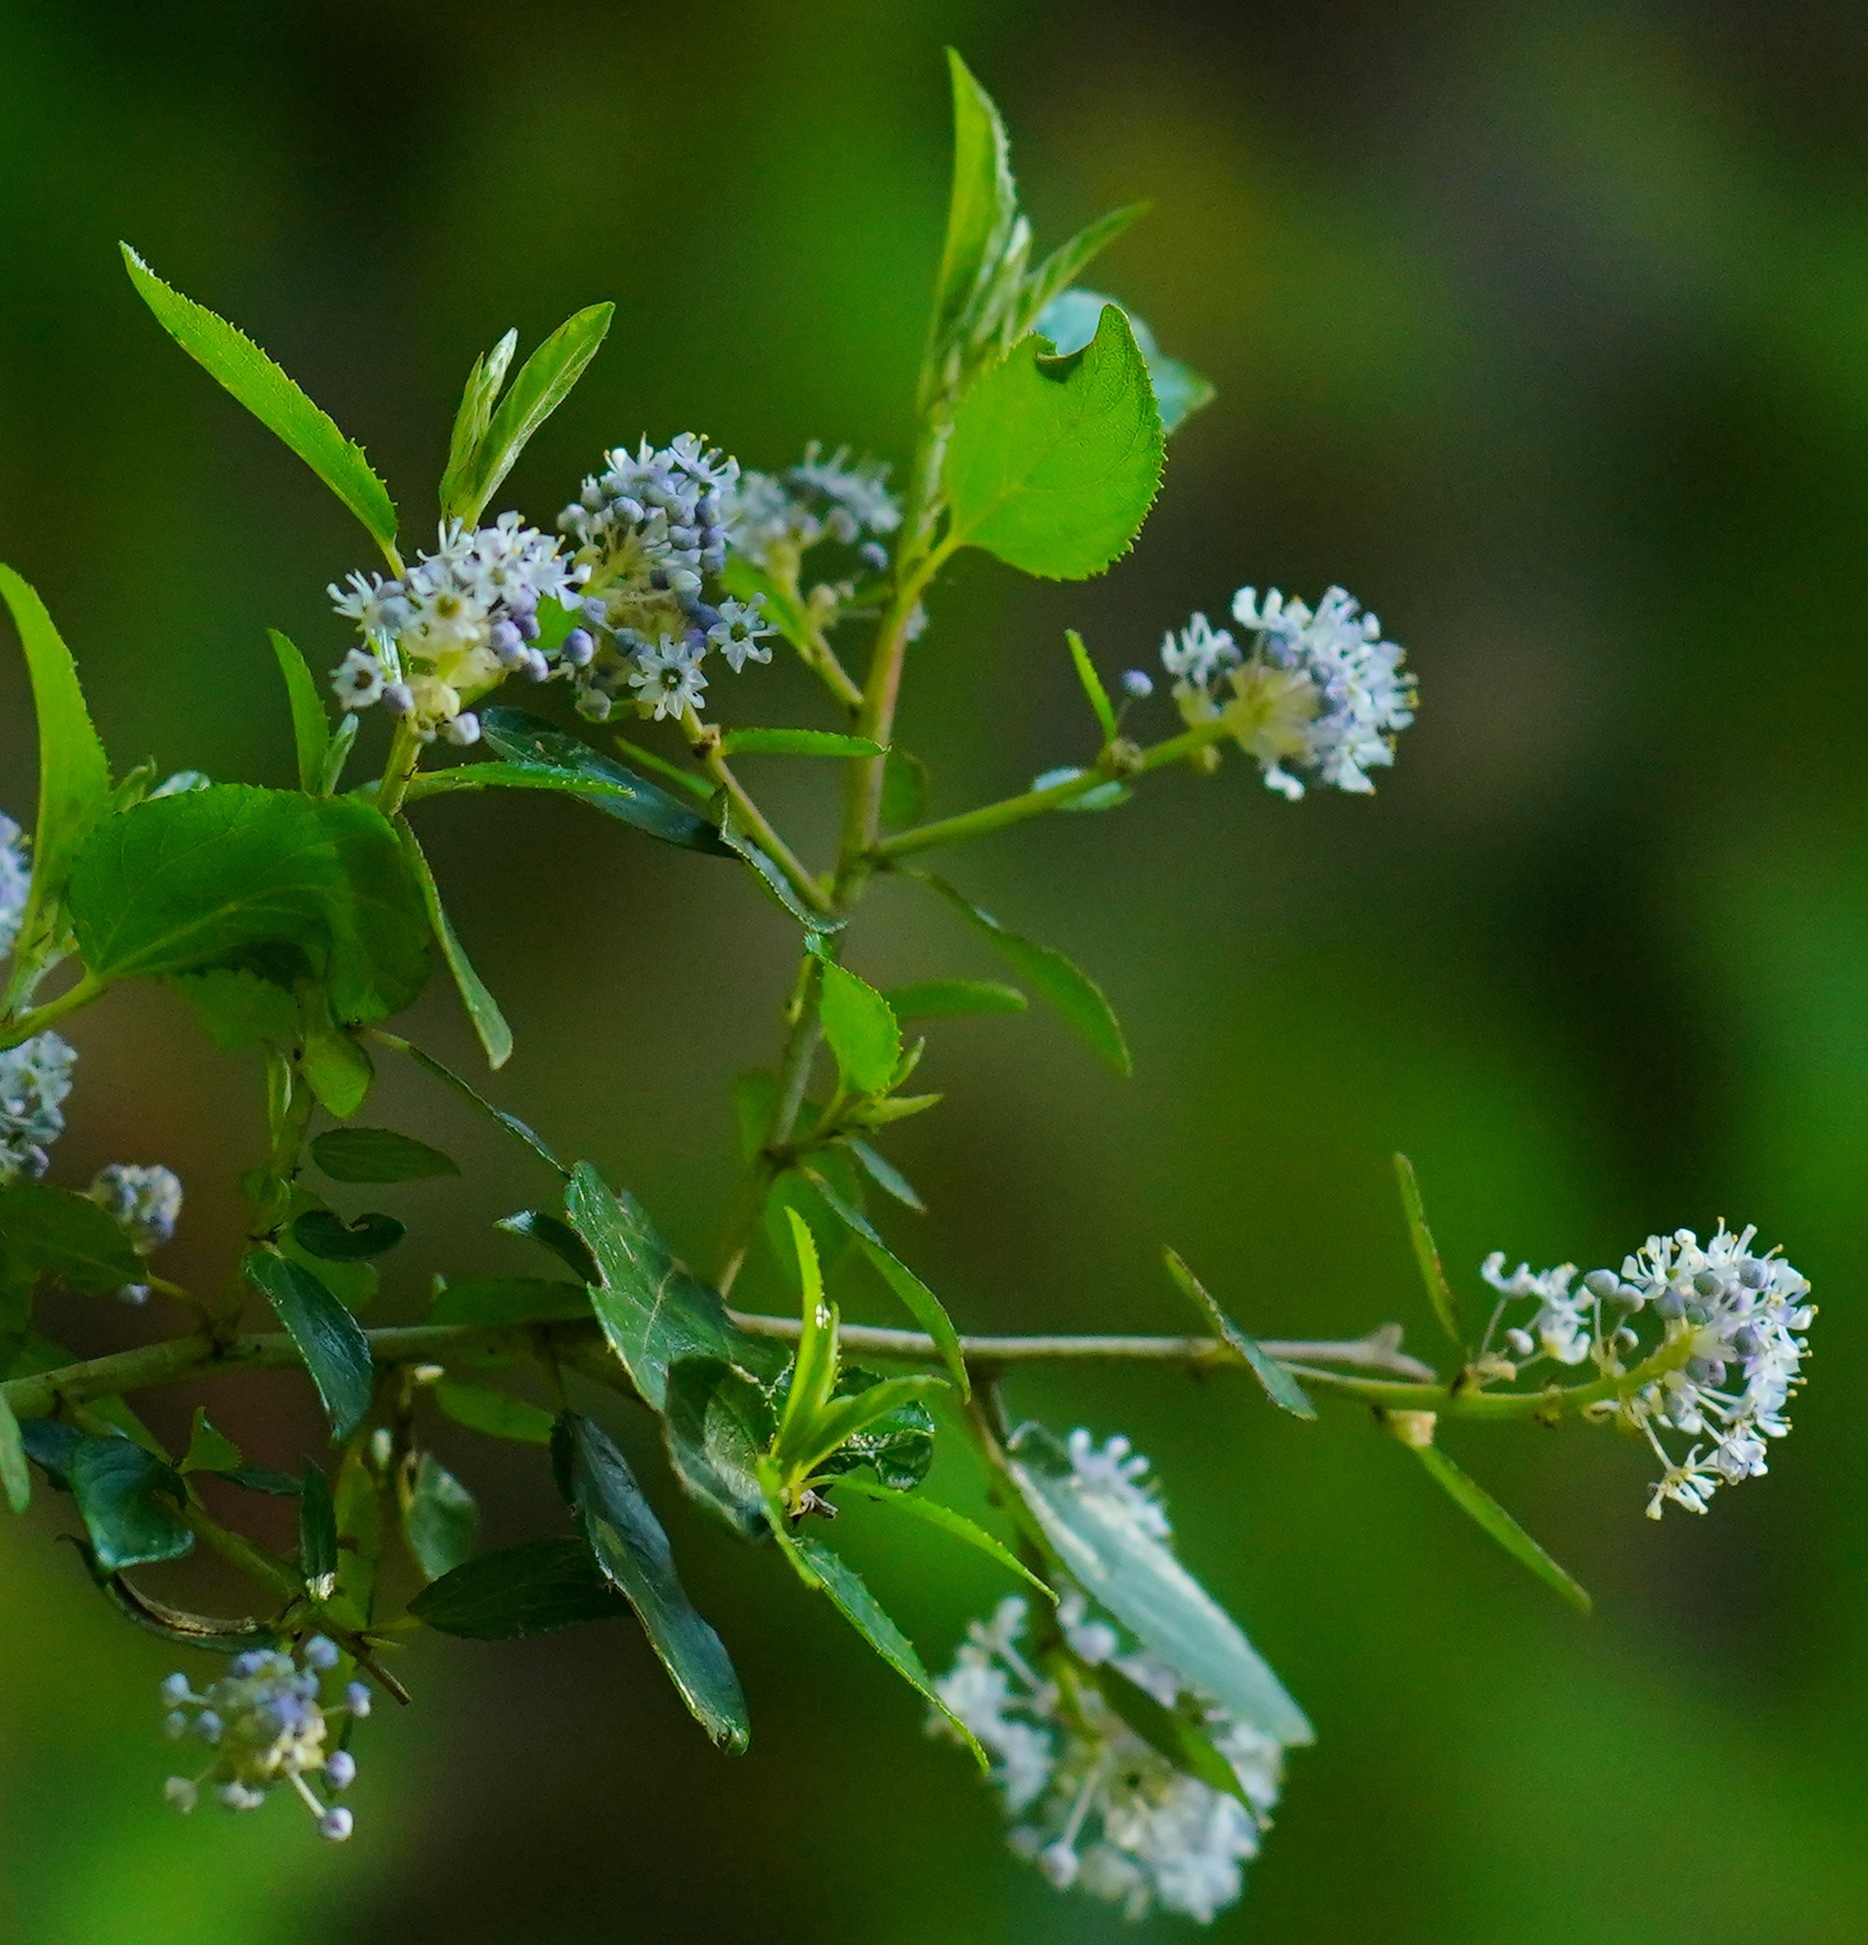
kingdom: Plantae
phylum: Tracheophyta
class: Magnoliopsida
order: Rosales
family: Rhamnaceae
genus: Ceanothus
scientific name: Ceanothus oliganthus
